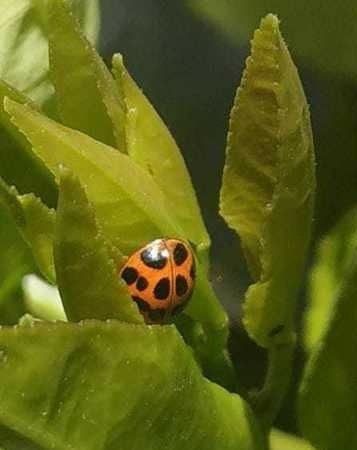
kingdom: Animalia
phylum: Arthropoda
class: Insecta
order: Coleoptera
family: Coccinellidae
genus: Harmonia
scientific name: Harmonia axyridis
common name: Harlequin ladybird
